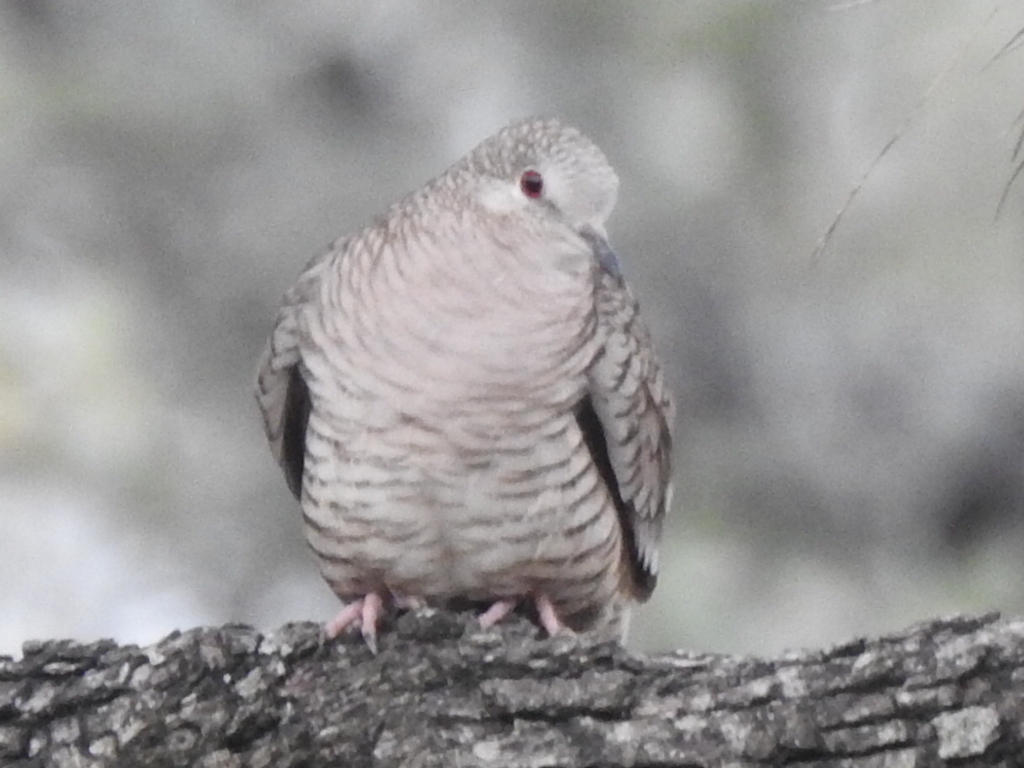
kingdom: Animalia
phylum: Chordata
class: Aves
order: Columbiformes
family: Columbidae
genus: Columbina
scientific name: Columbina inca
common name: Inca dove
